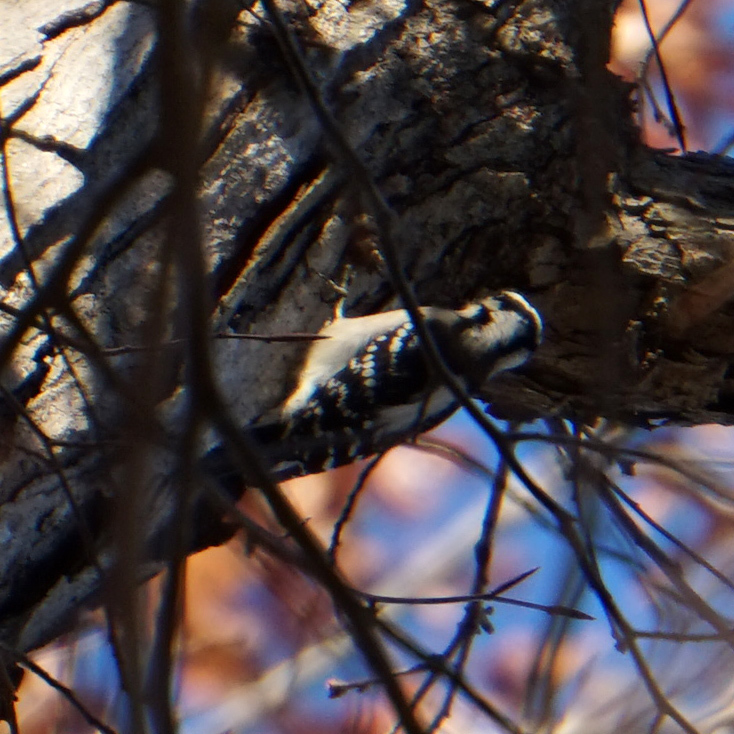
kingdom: Animalia
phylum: Chordata
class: Aves
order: Piciformes
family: Picidae
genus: Dryobates
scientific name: Dryobates pubescens
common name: Downy woodpecker
